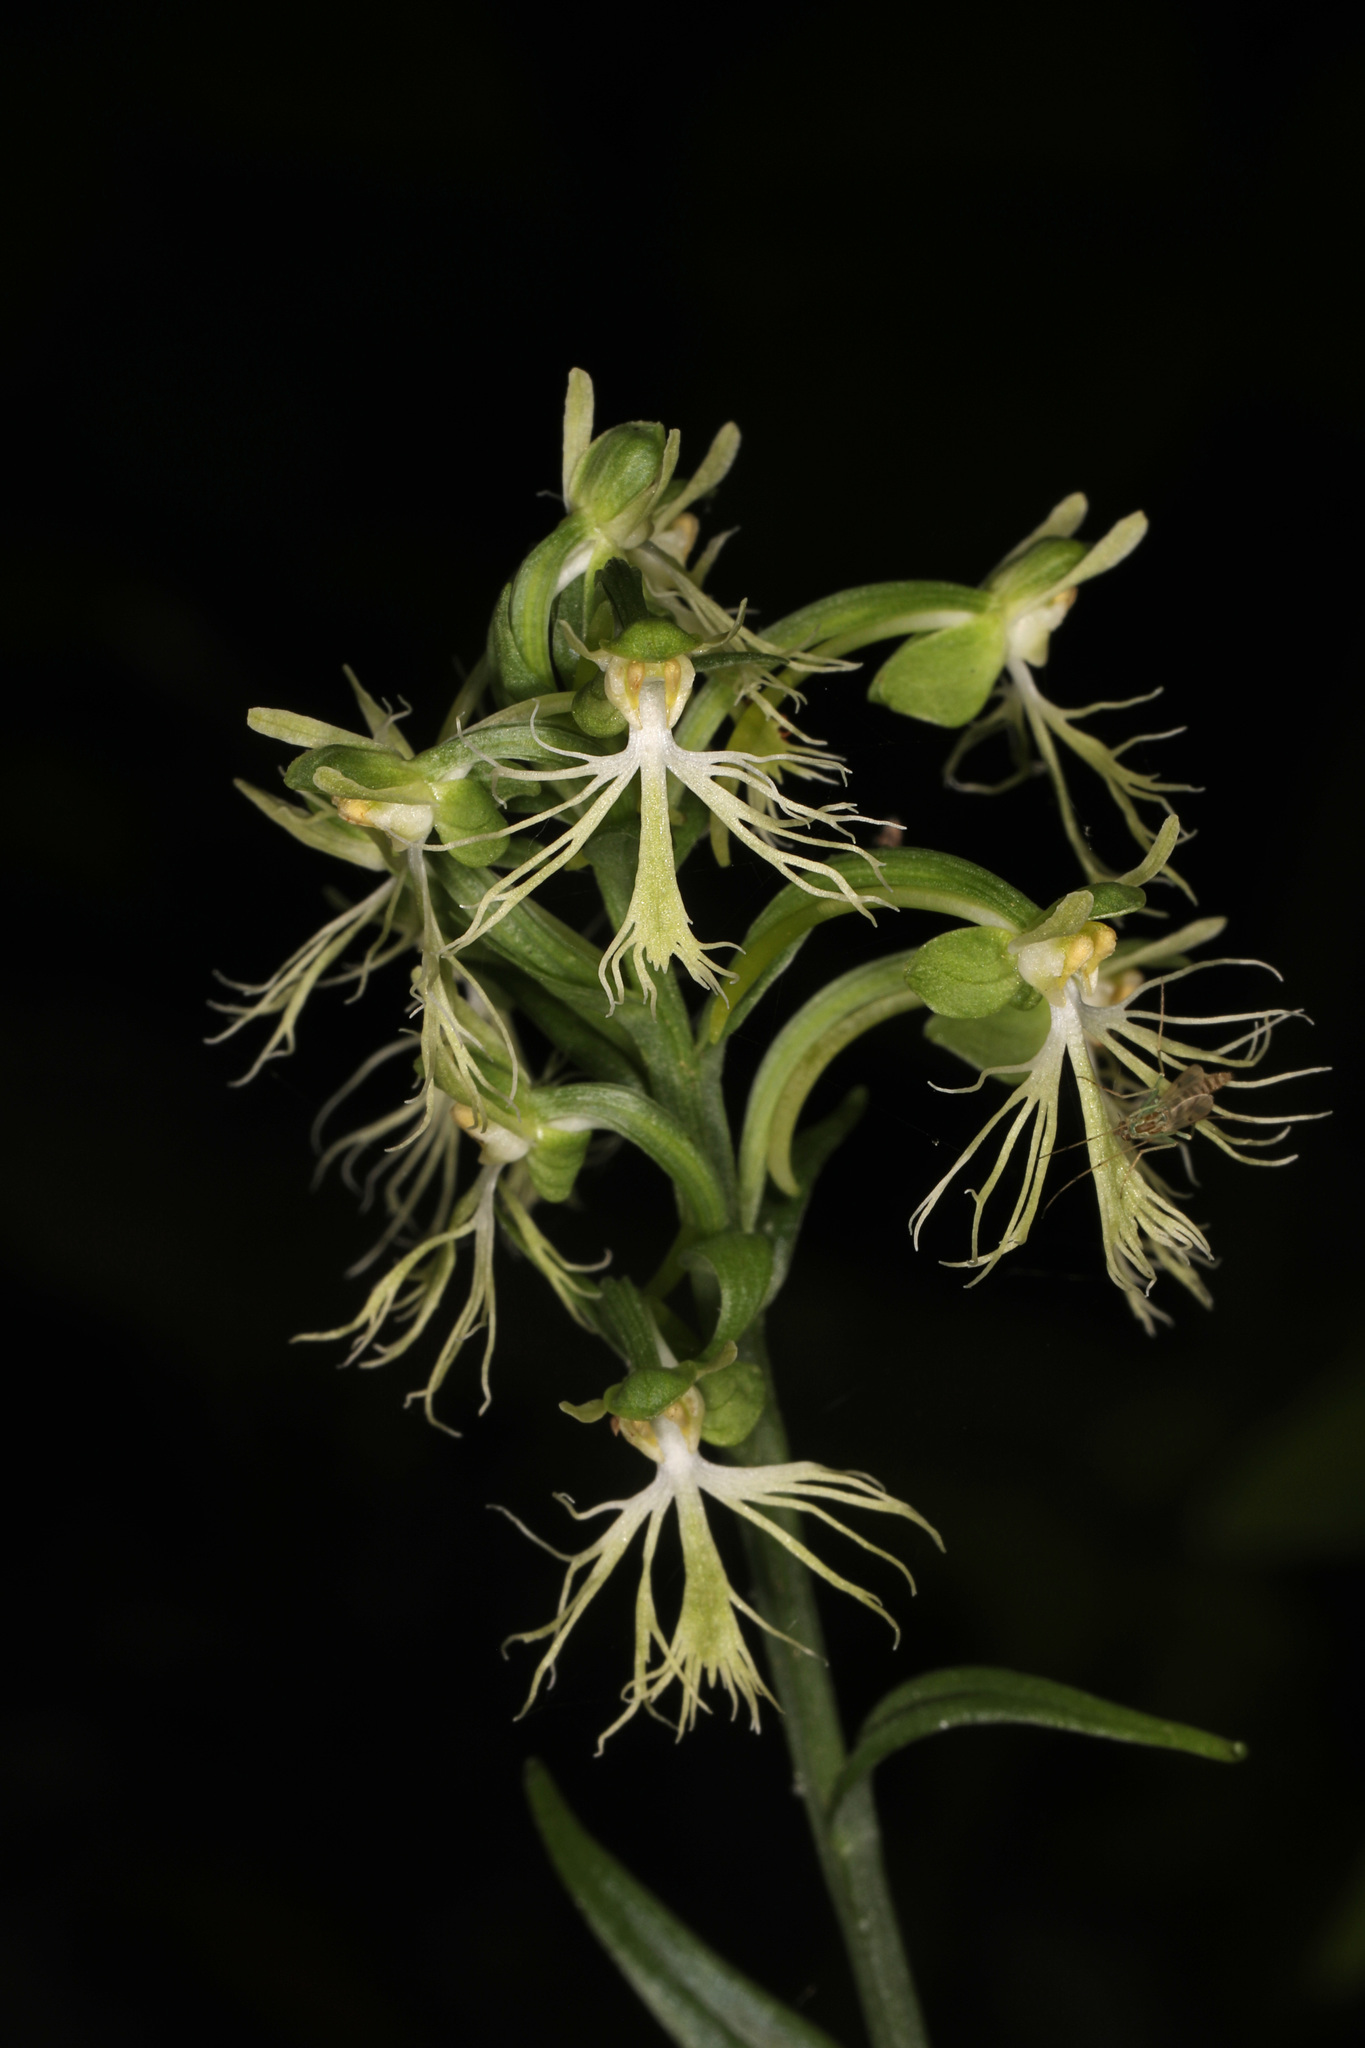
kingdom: Plantae
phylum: Tracheophyta
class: Liliopsida
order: Asparagales
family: Orchidaceae
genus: Platanthera
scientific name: Platanthera lacera
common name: Green fringed orchid
